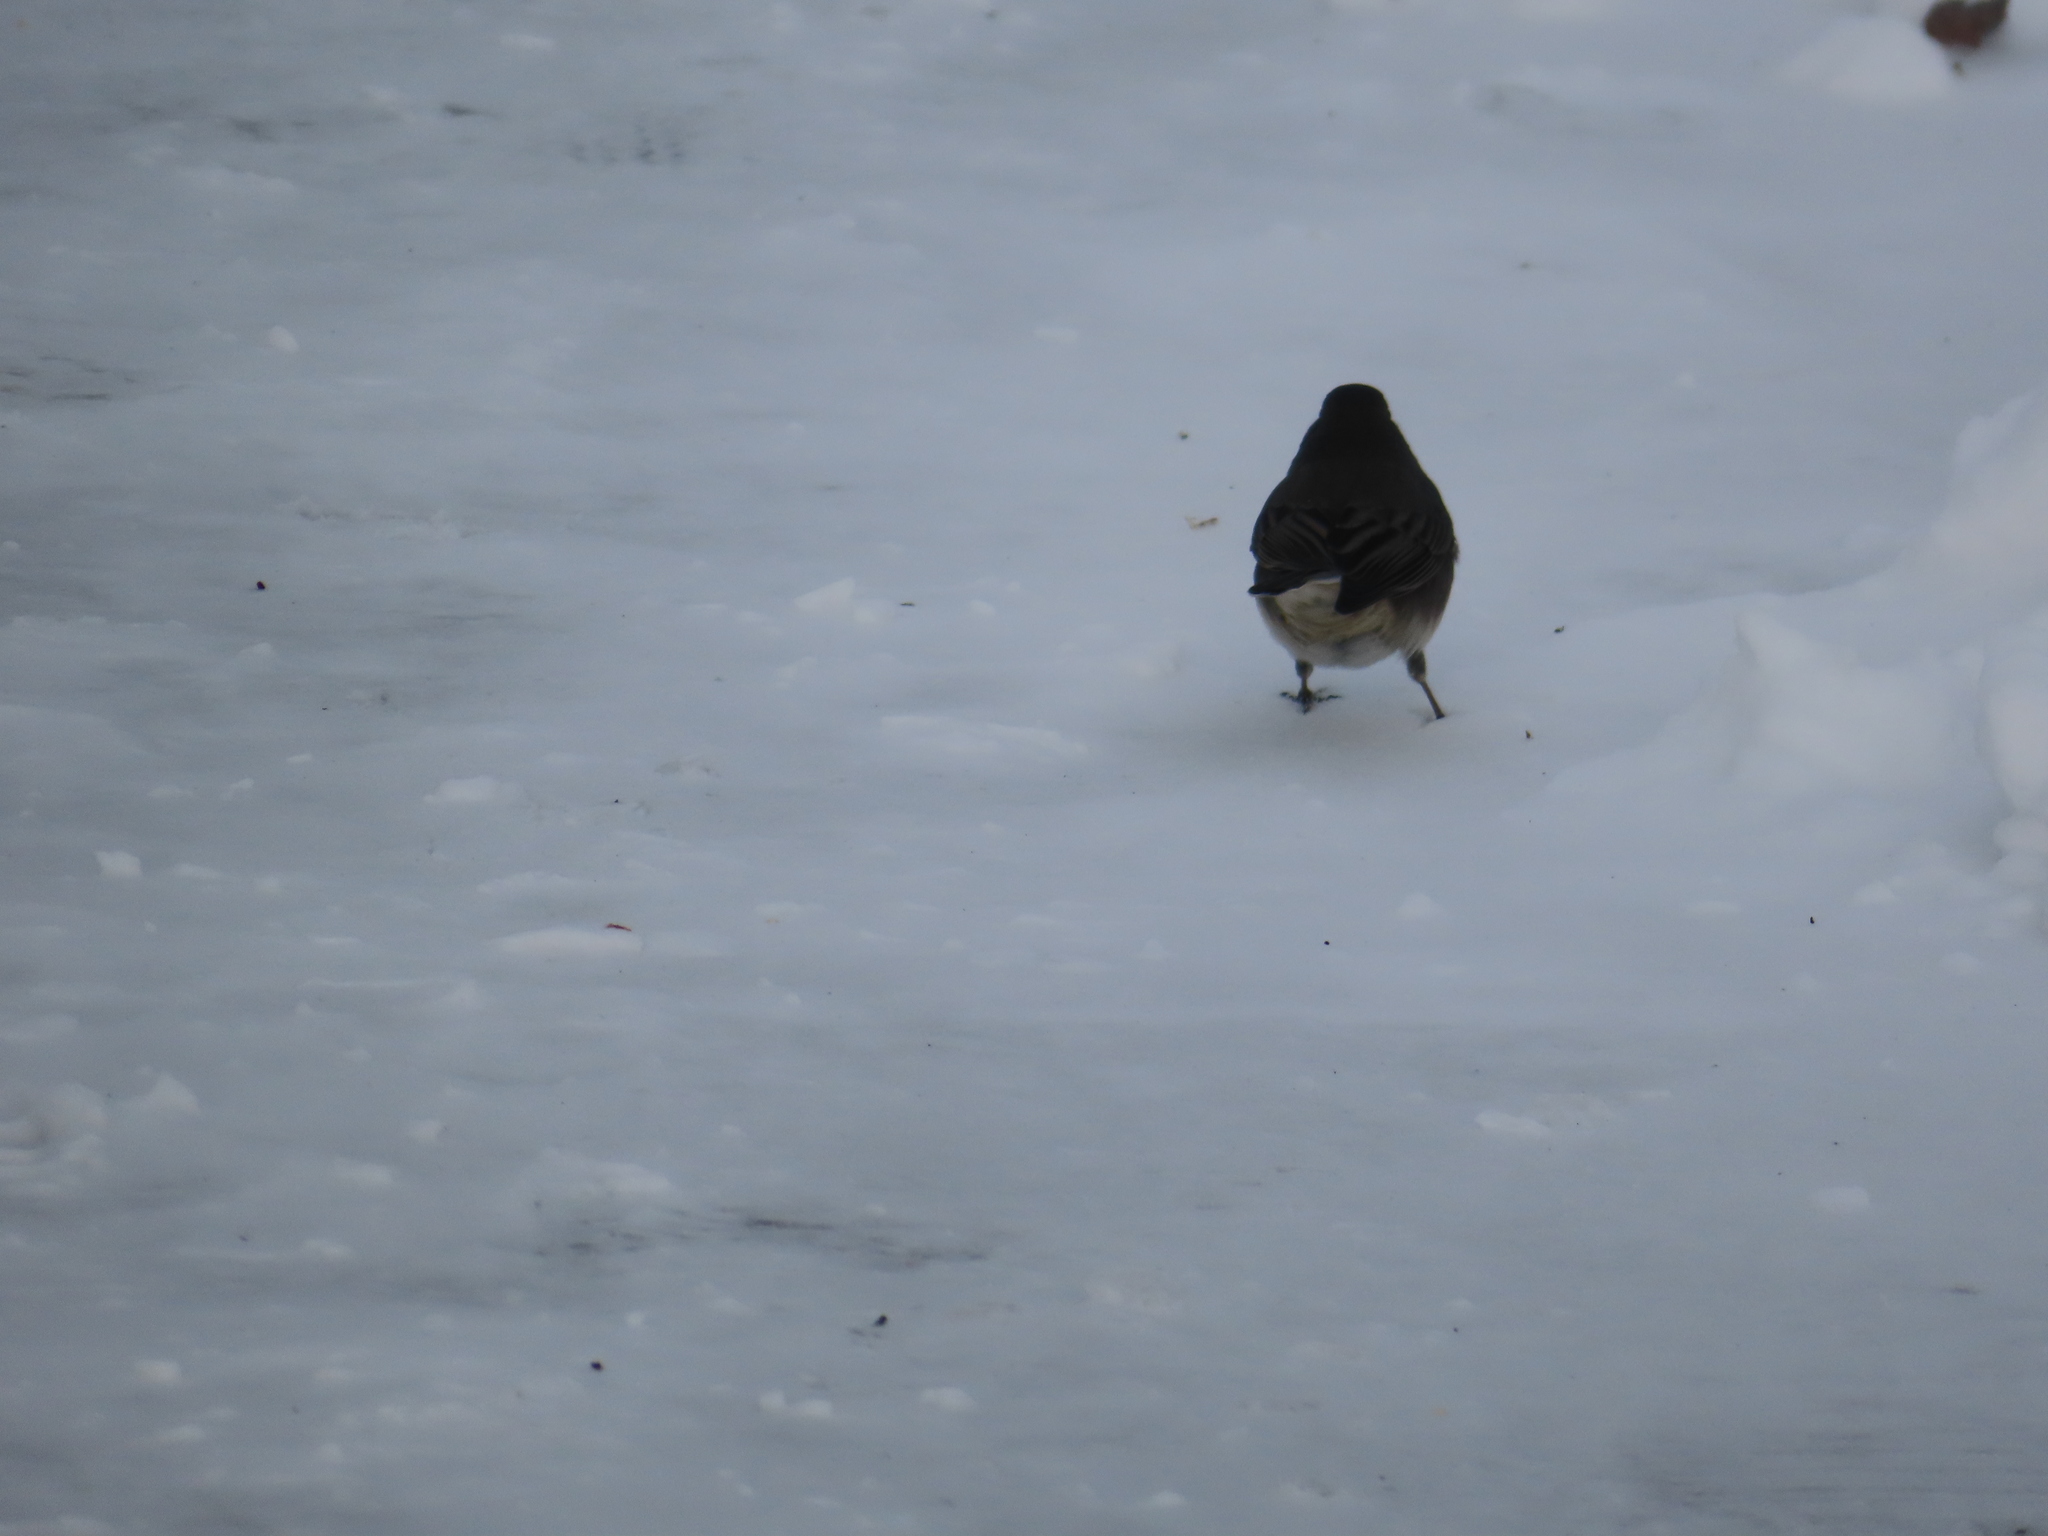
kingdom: Animalia
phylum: Chordata
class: Aves
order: Passeriformes
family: Passerellidae
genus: Junco
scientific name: Junco hyemalis
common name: Dark-eyed junco
